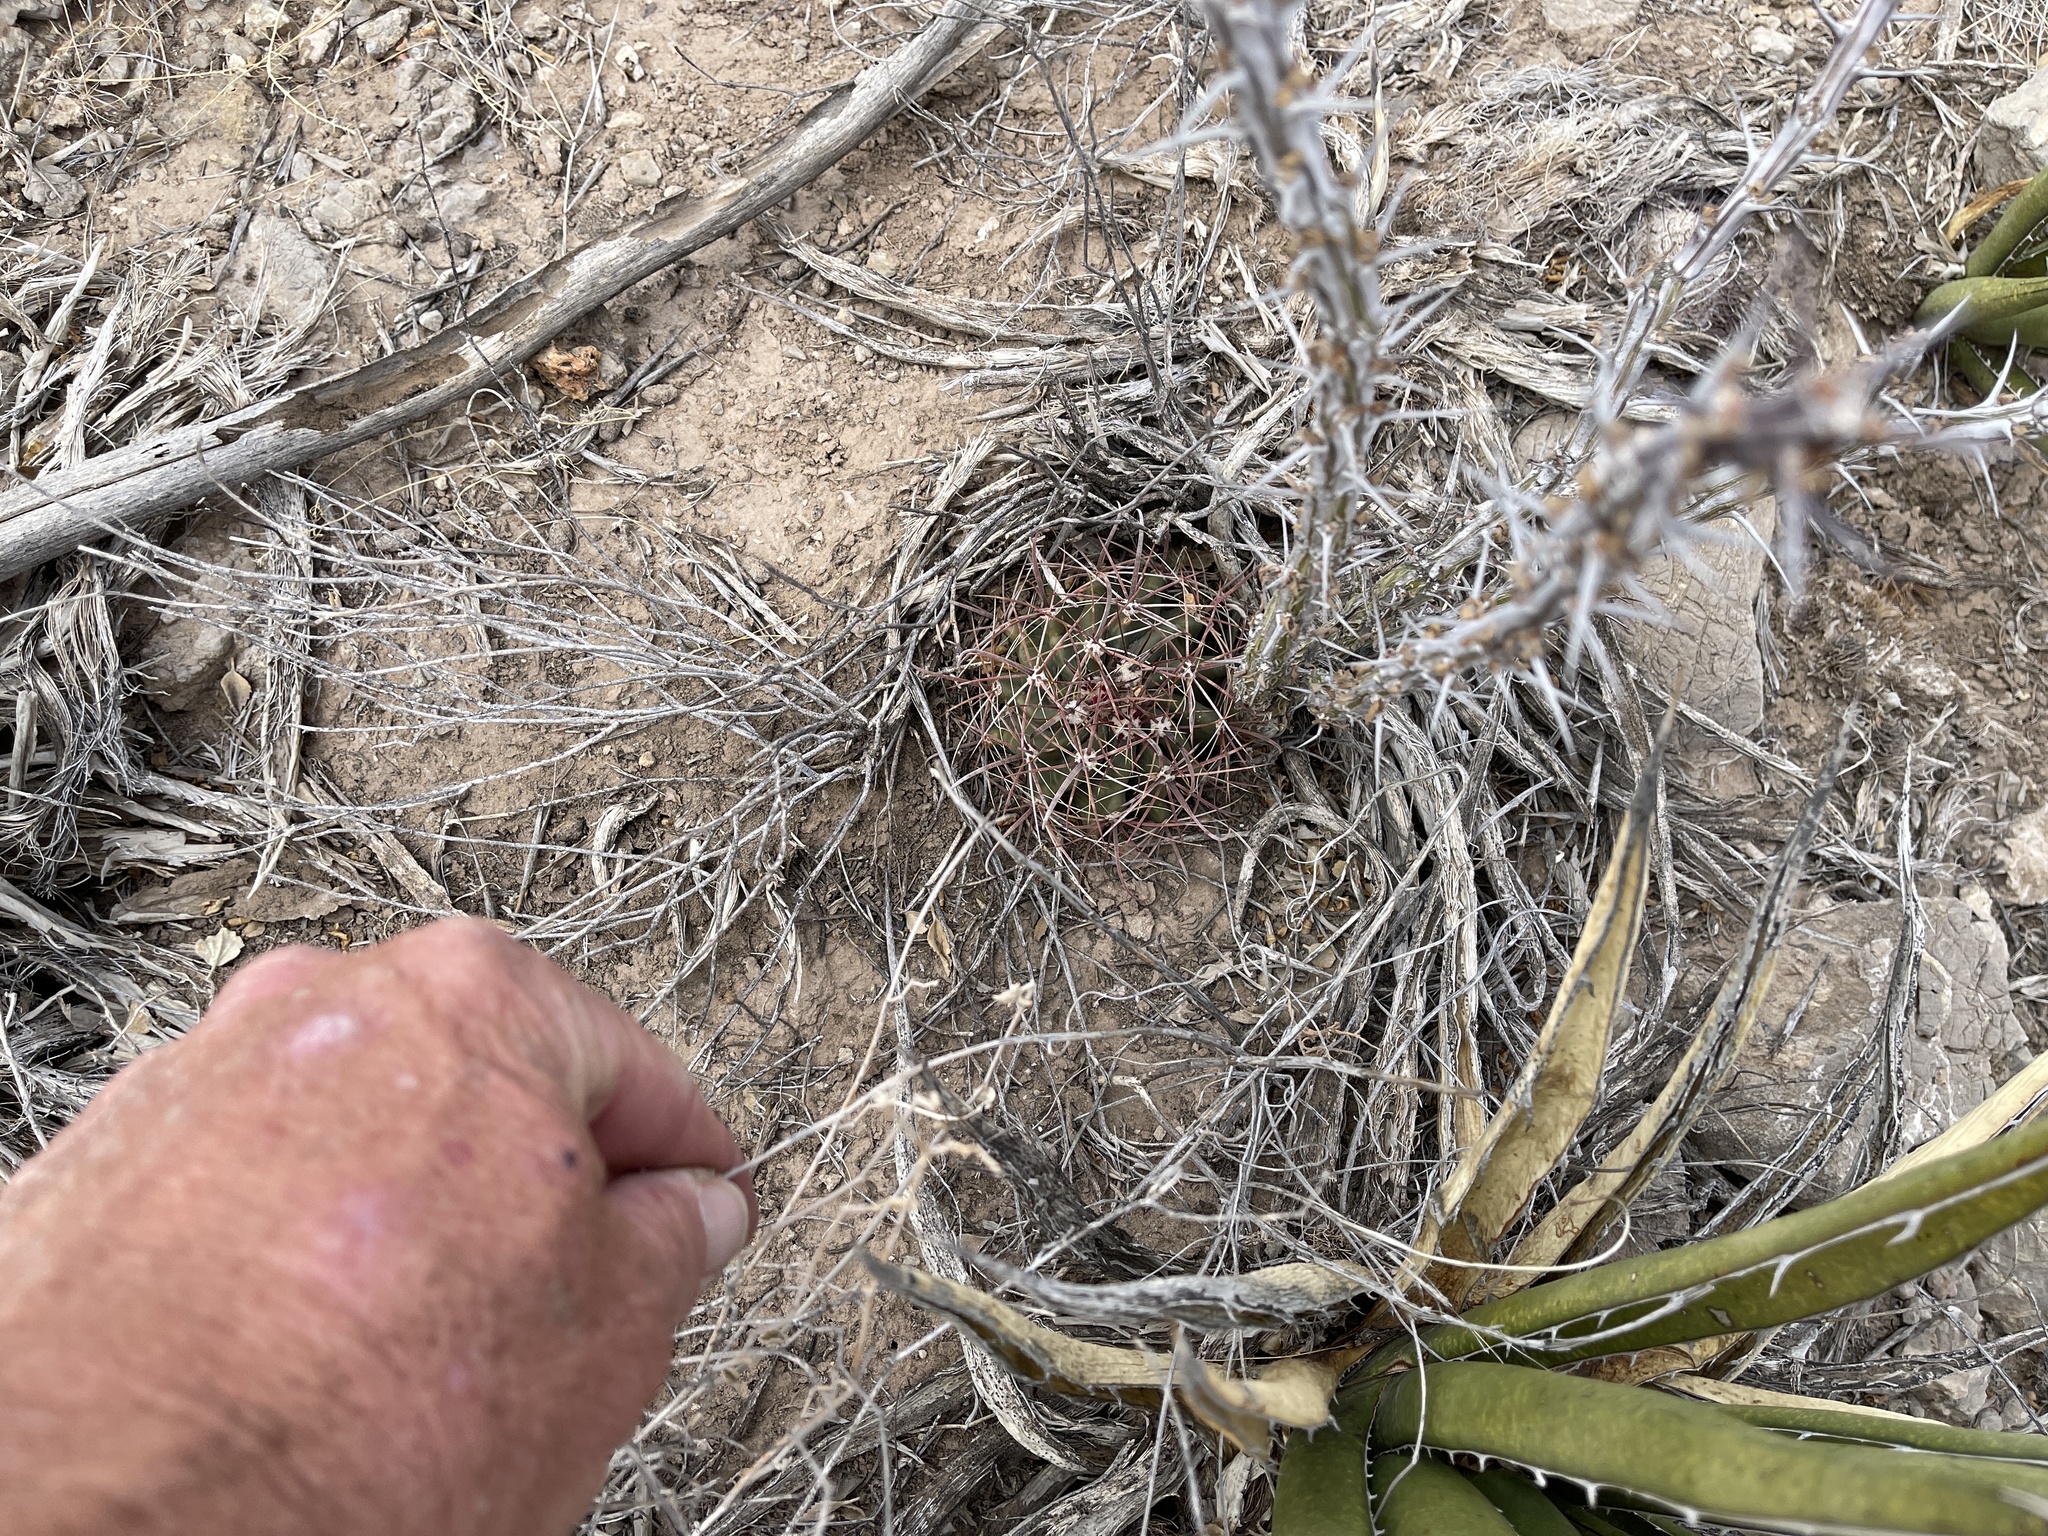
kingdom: Plantae
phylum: Tracheophyta
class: Magnoliopsida
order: Caryophyllales
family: Cactaceae
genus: Ferocactus
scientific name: Ferocactus wislizeni
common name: Candy barrel cactus
